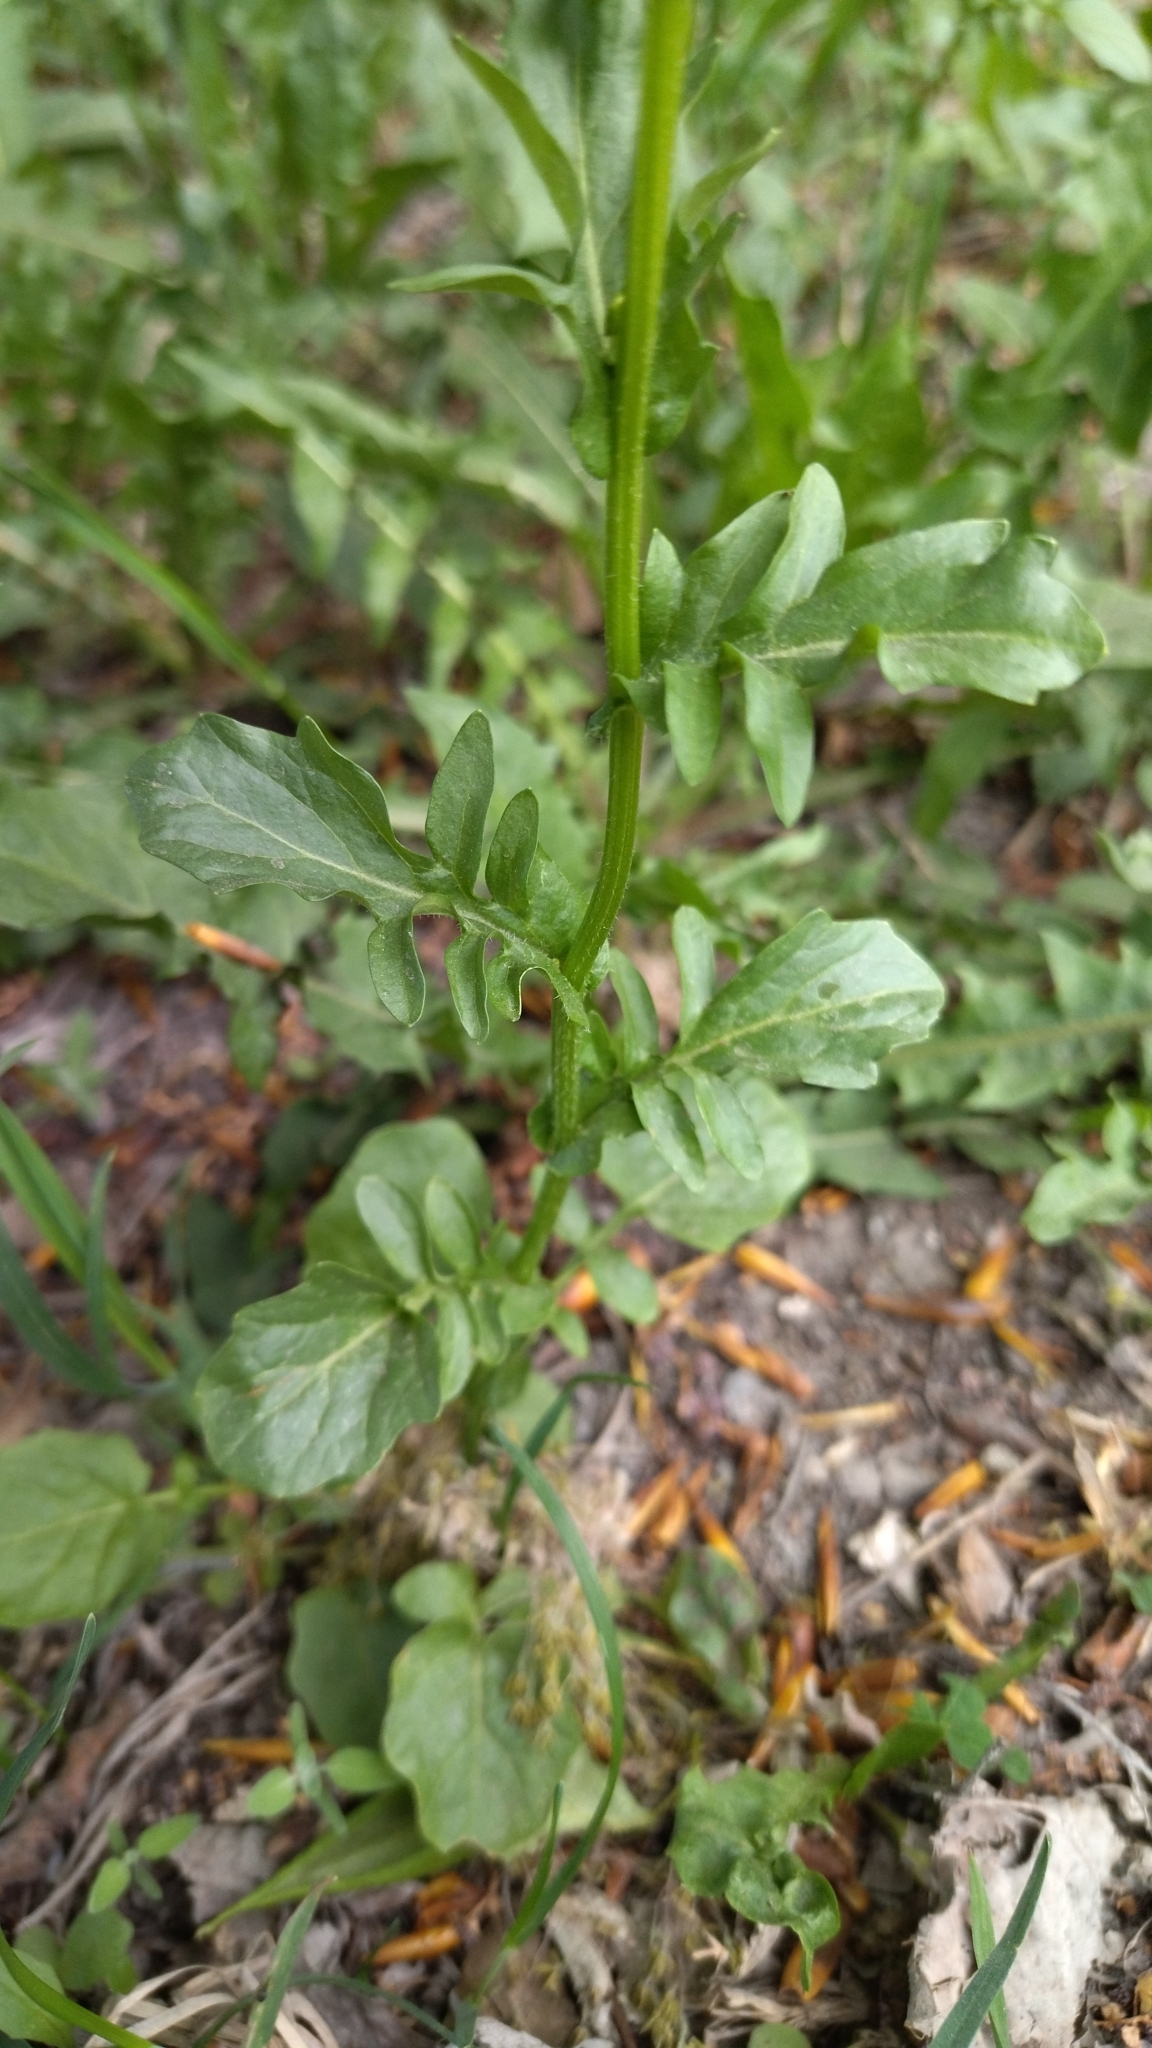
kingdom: Plantae
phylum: Tracheophyta
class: Magnoliopsida
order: Brassicales
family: Brassicaceae
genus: Barbarea
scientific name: Barbarea vulgaris
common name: Cressy-greens
